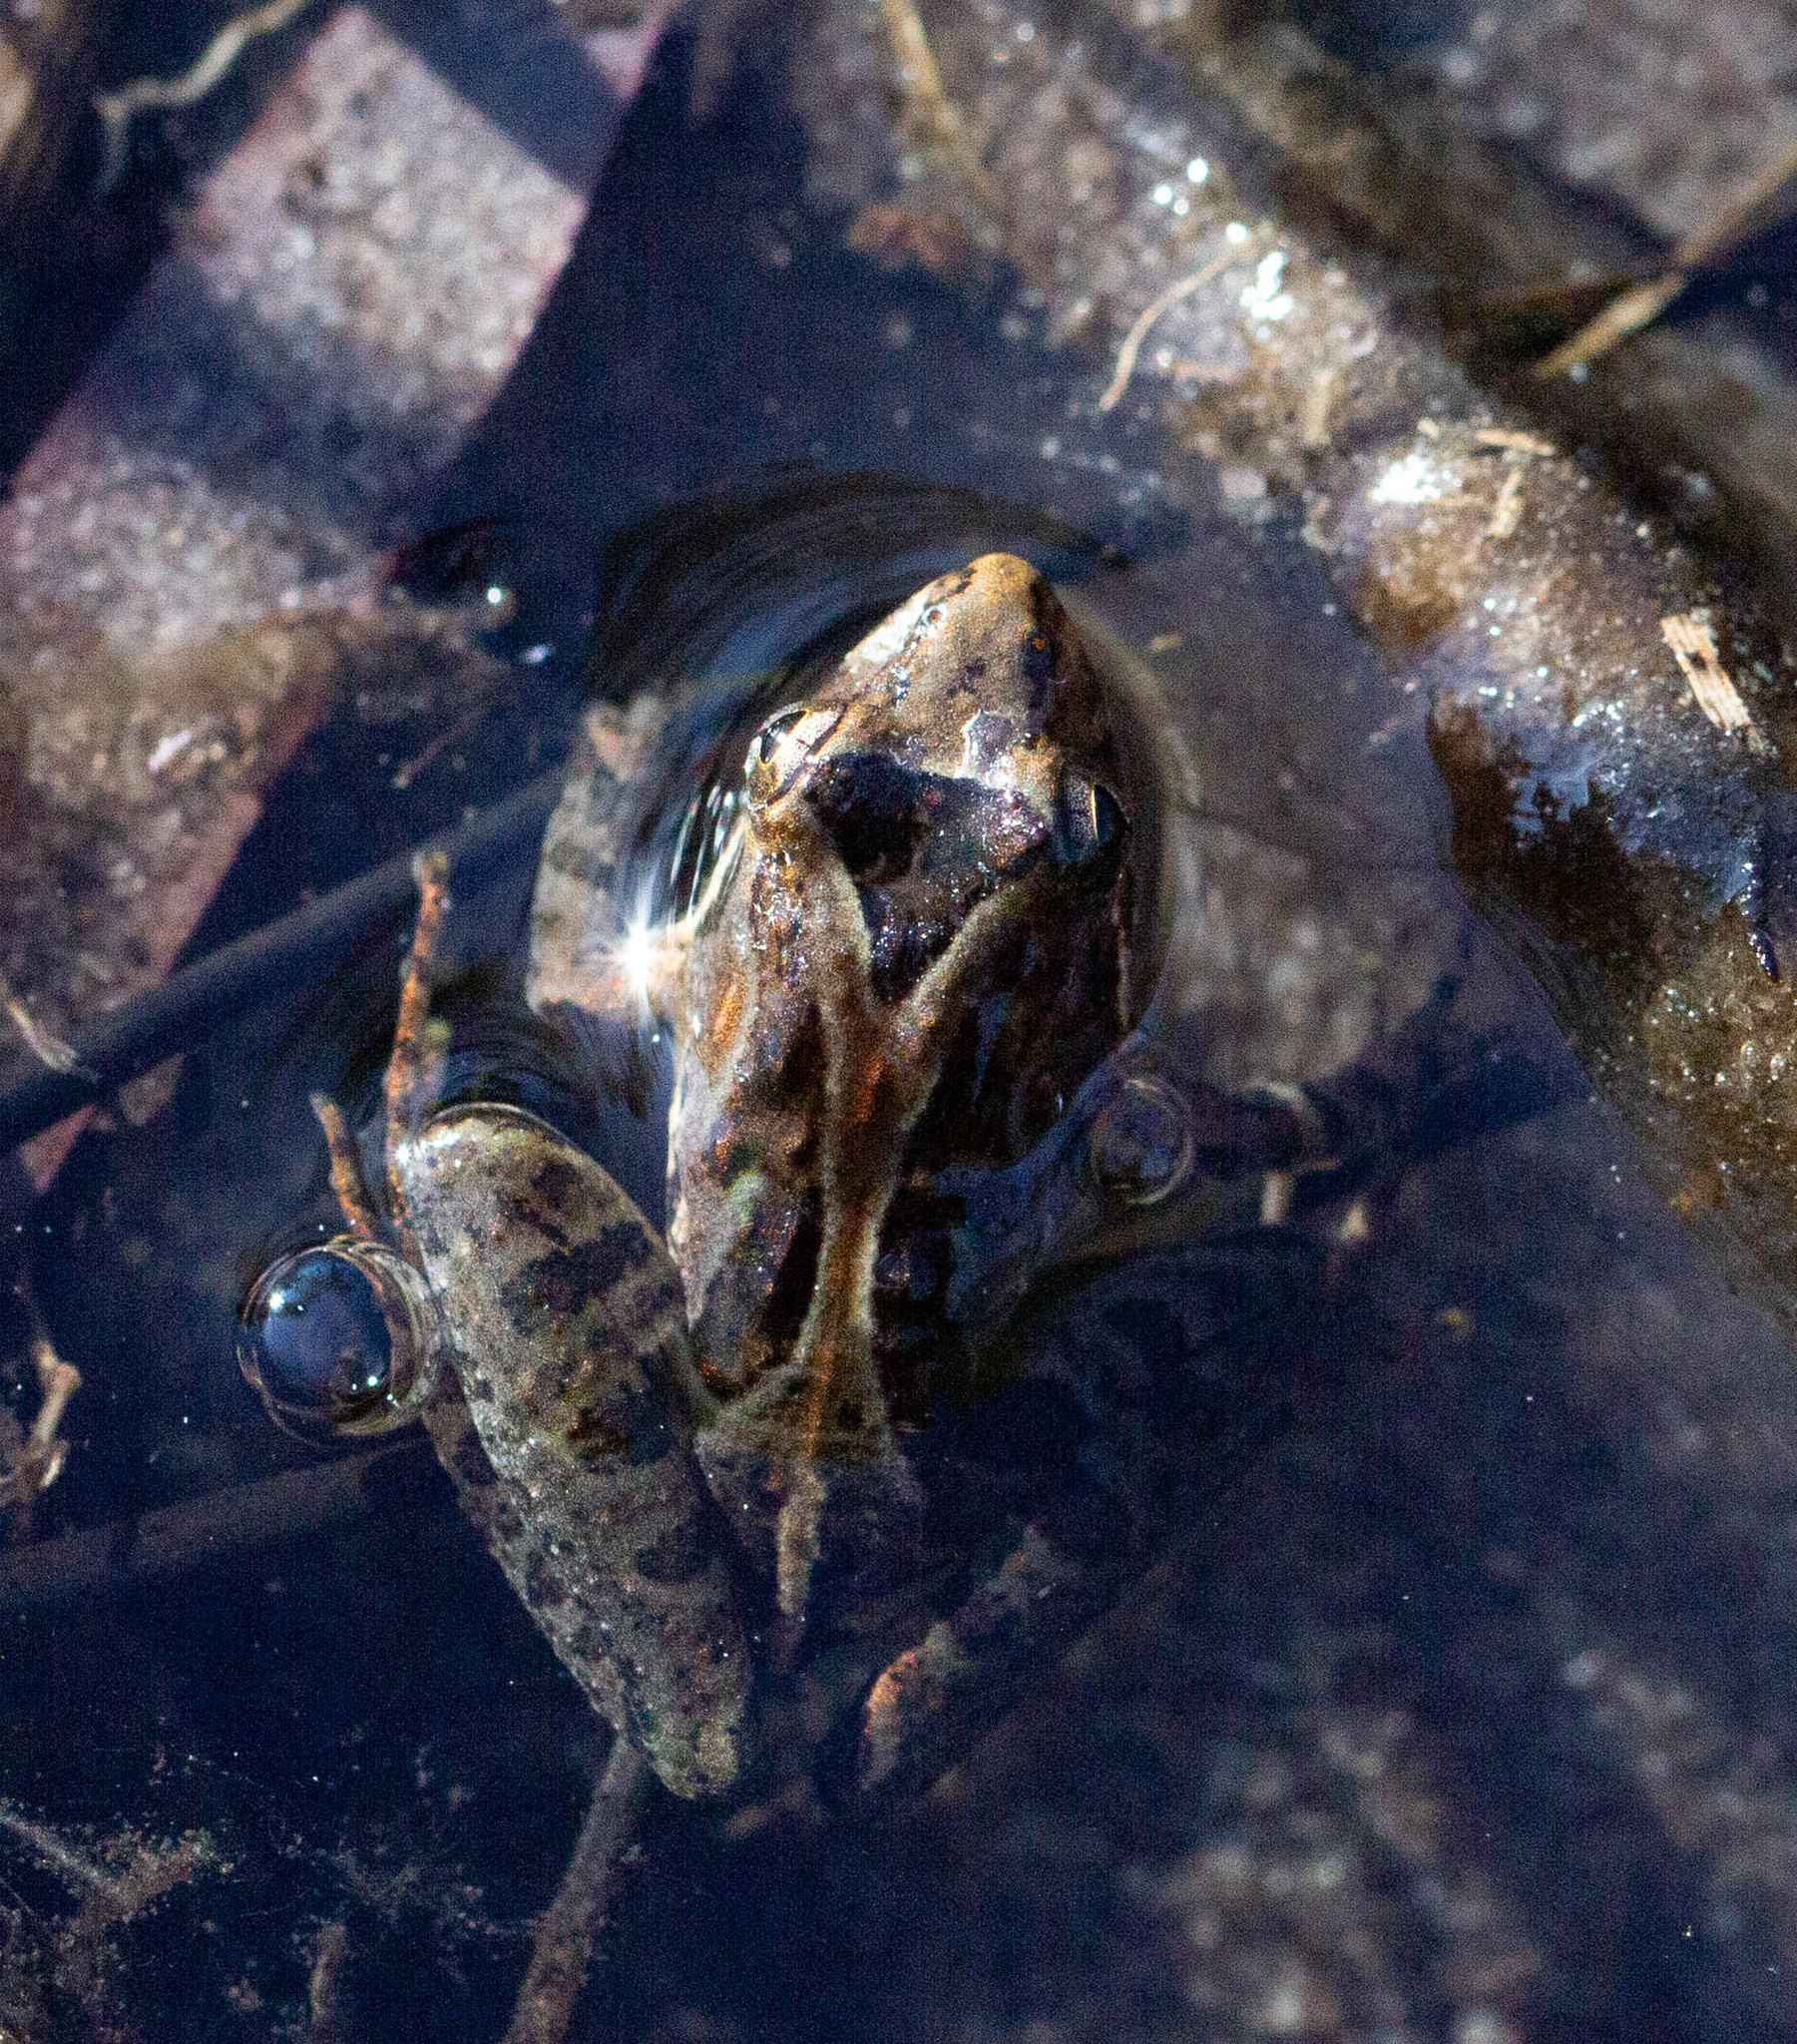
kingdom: Animalia
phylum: Chordata
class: Amphibia
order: Anura
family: Hylidae
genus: Acris
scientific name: Acris gryllus
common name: Southern cricket frog
